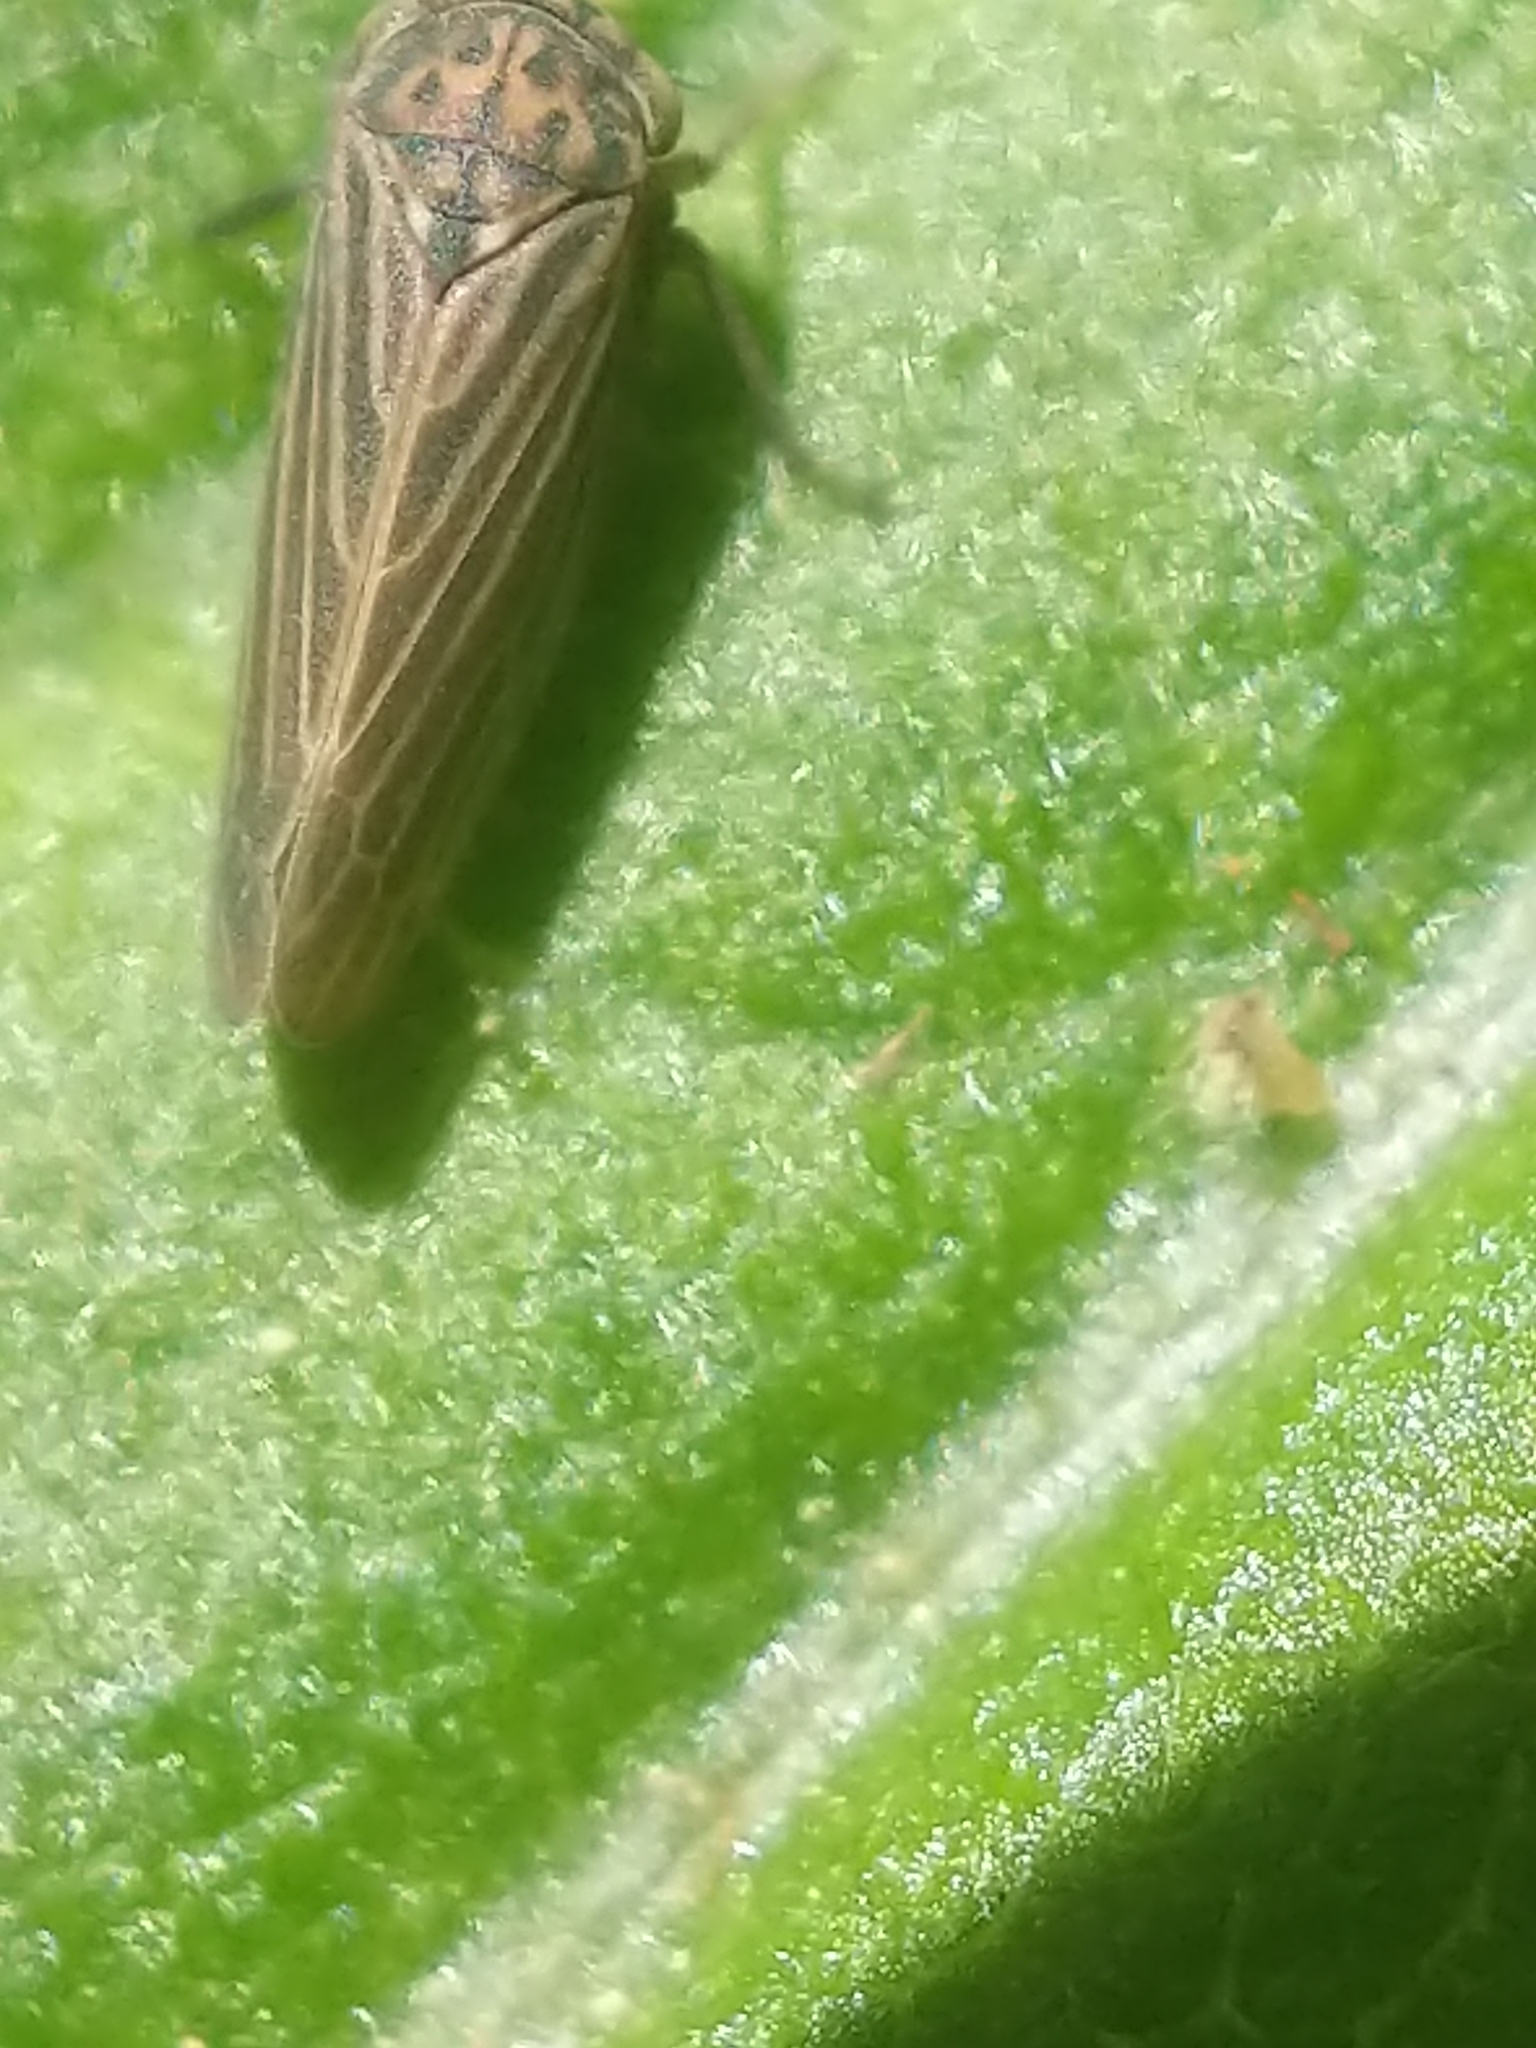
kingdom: Animalia
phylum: Arthropoda
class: Insecta
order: Hemiptera
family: Cicadellidae
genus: Agallia
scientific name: Agallia constricta
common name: The constricted leafhopper
